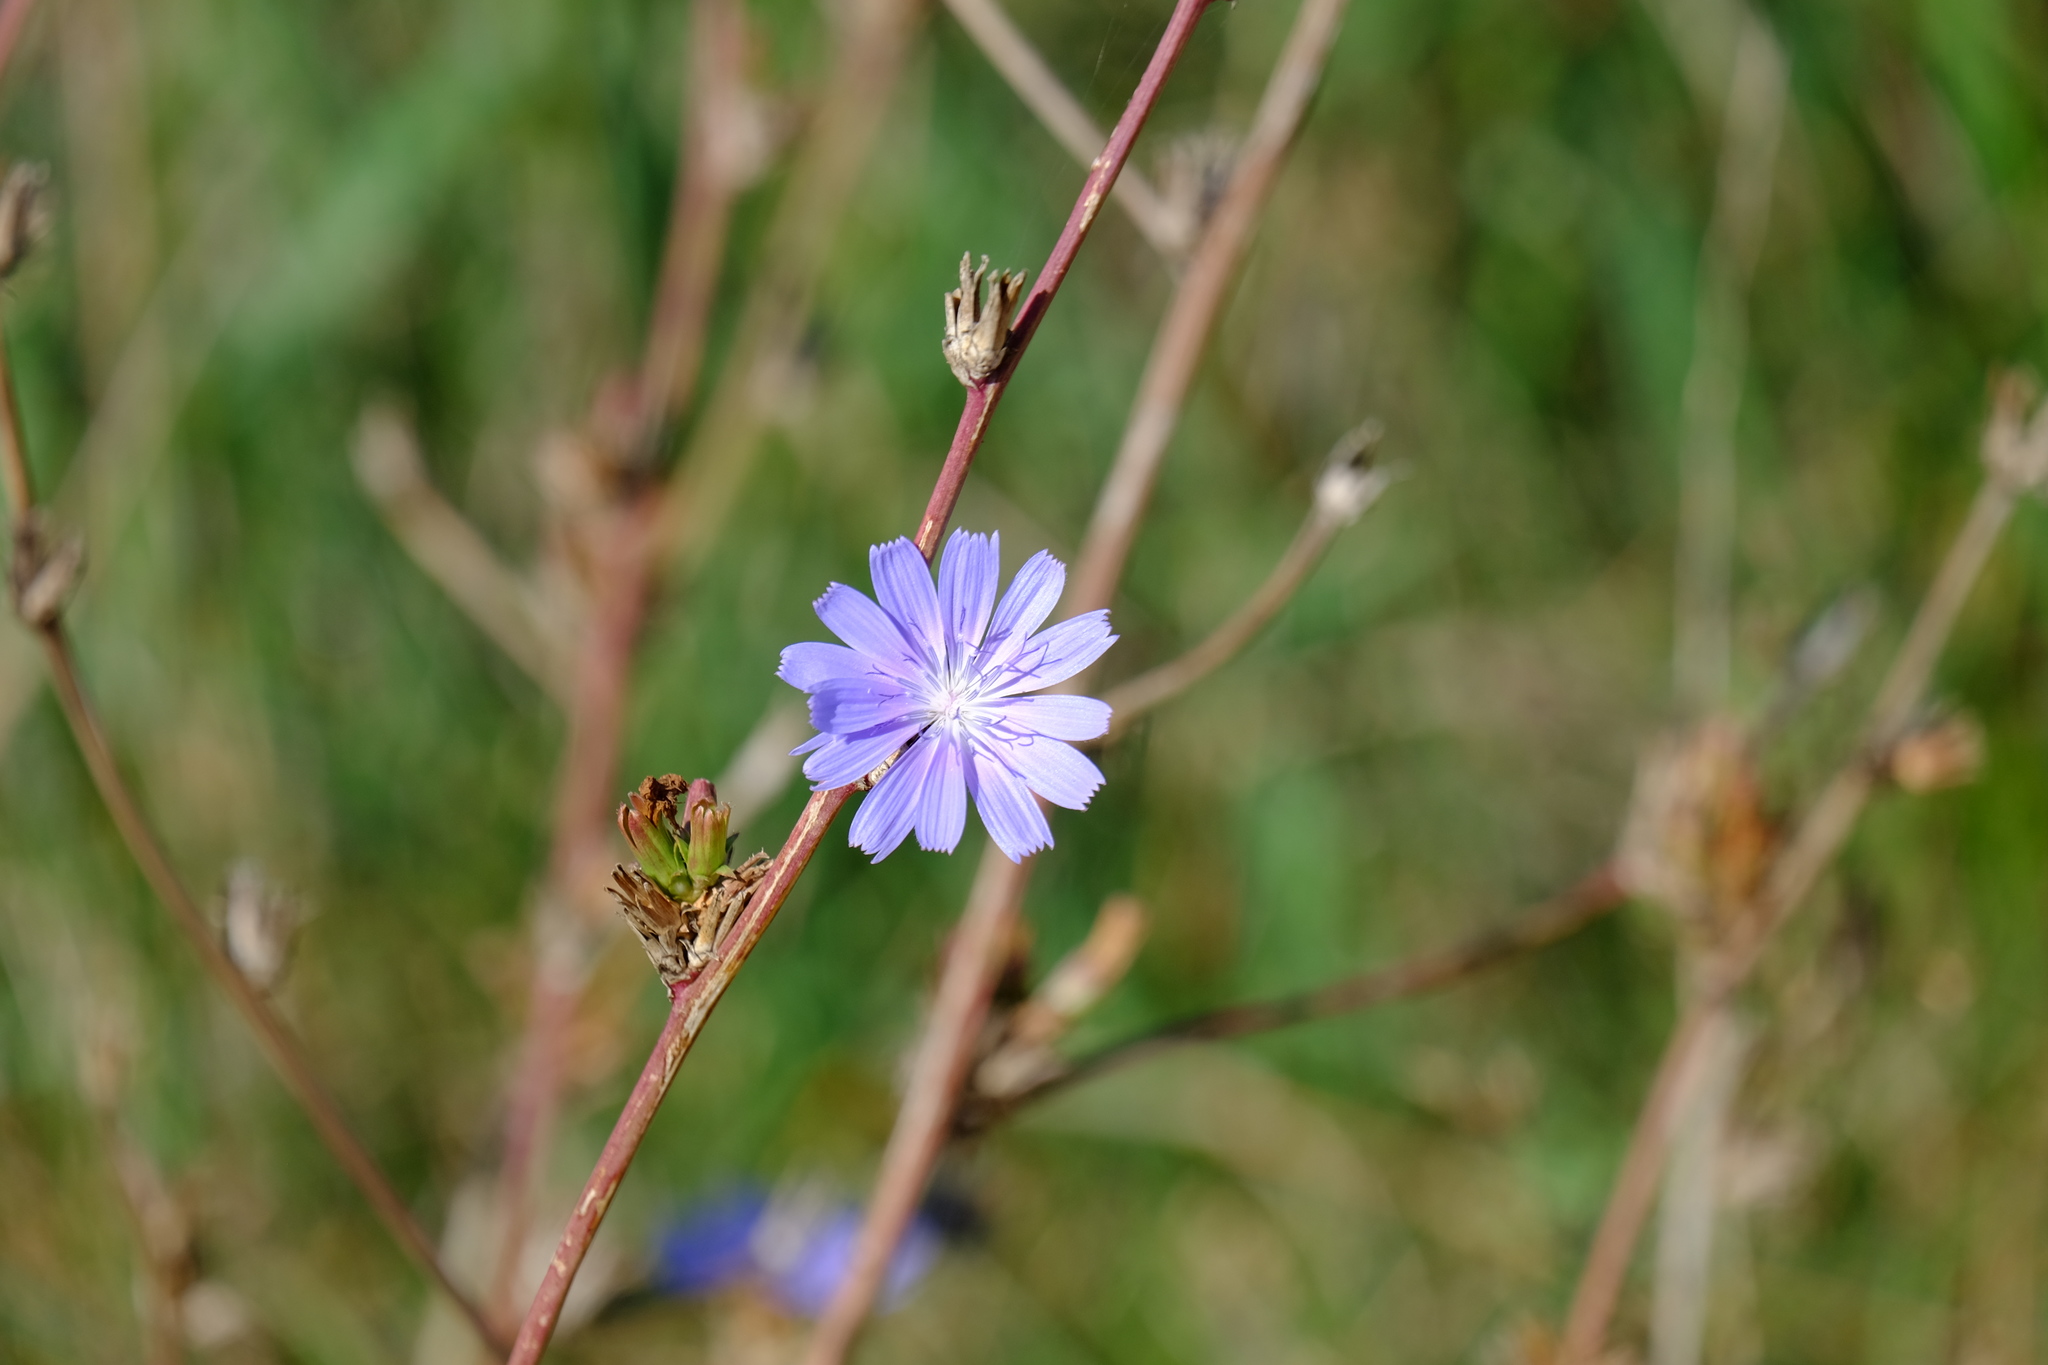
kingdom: Plantae
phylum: Tracheophyta
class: Magnoliopsida
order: Asterales
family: Asteraceae
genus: Cichorium
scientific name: Cichorium intybus
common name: Chicory
